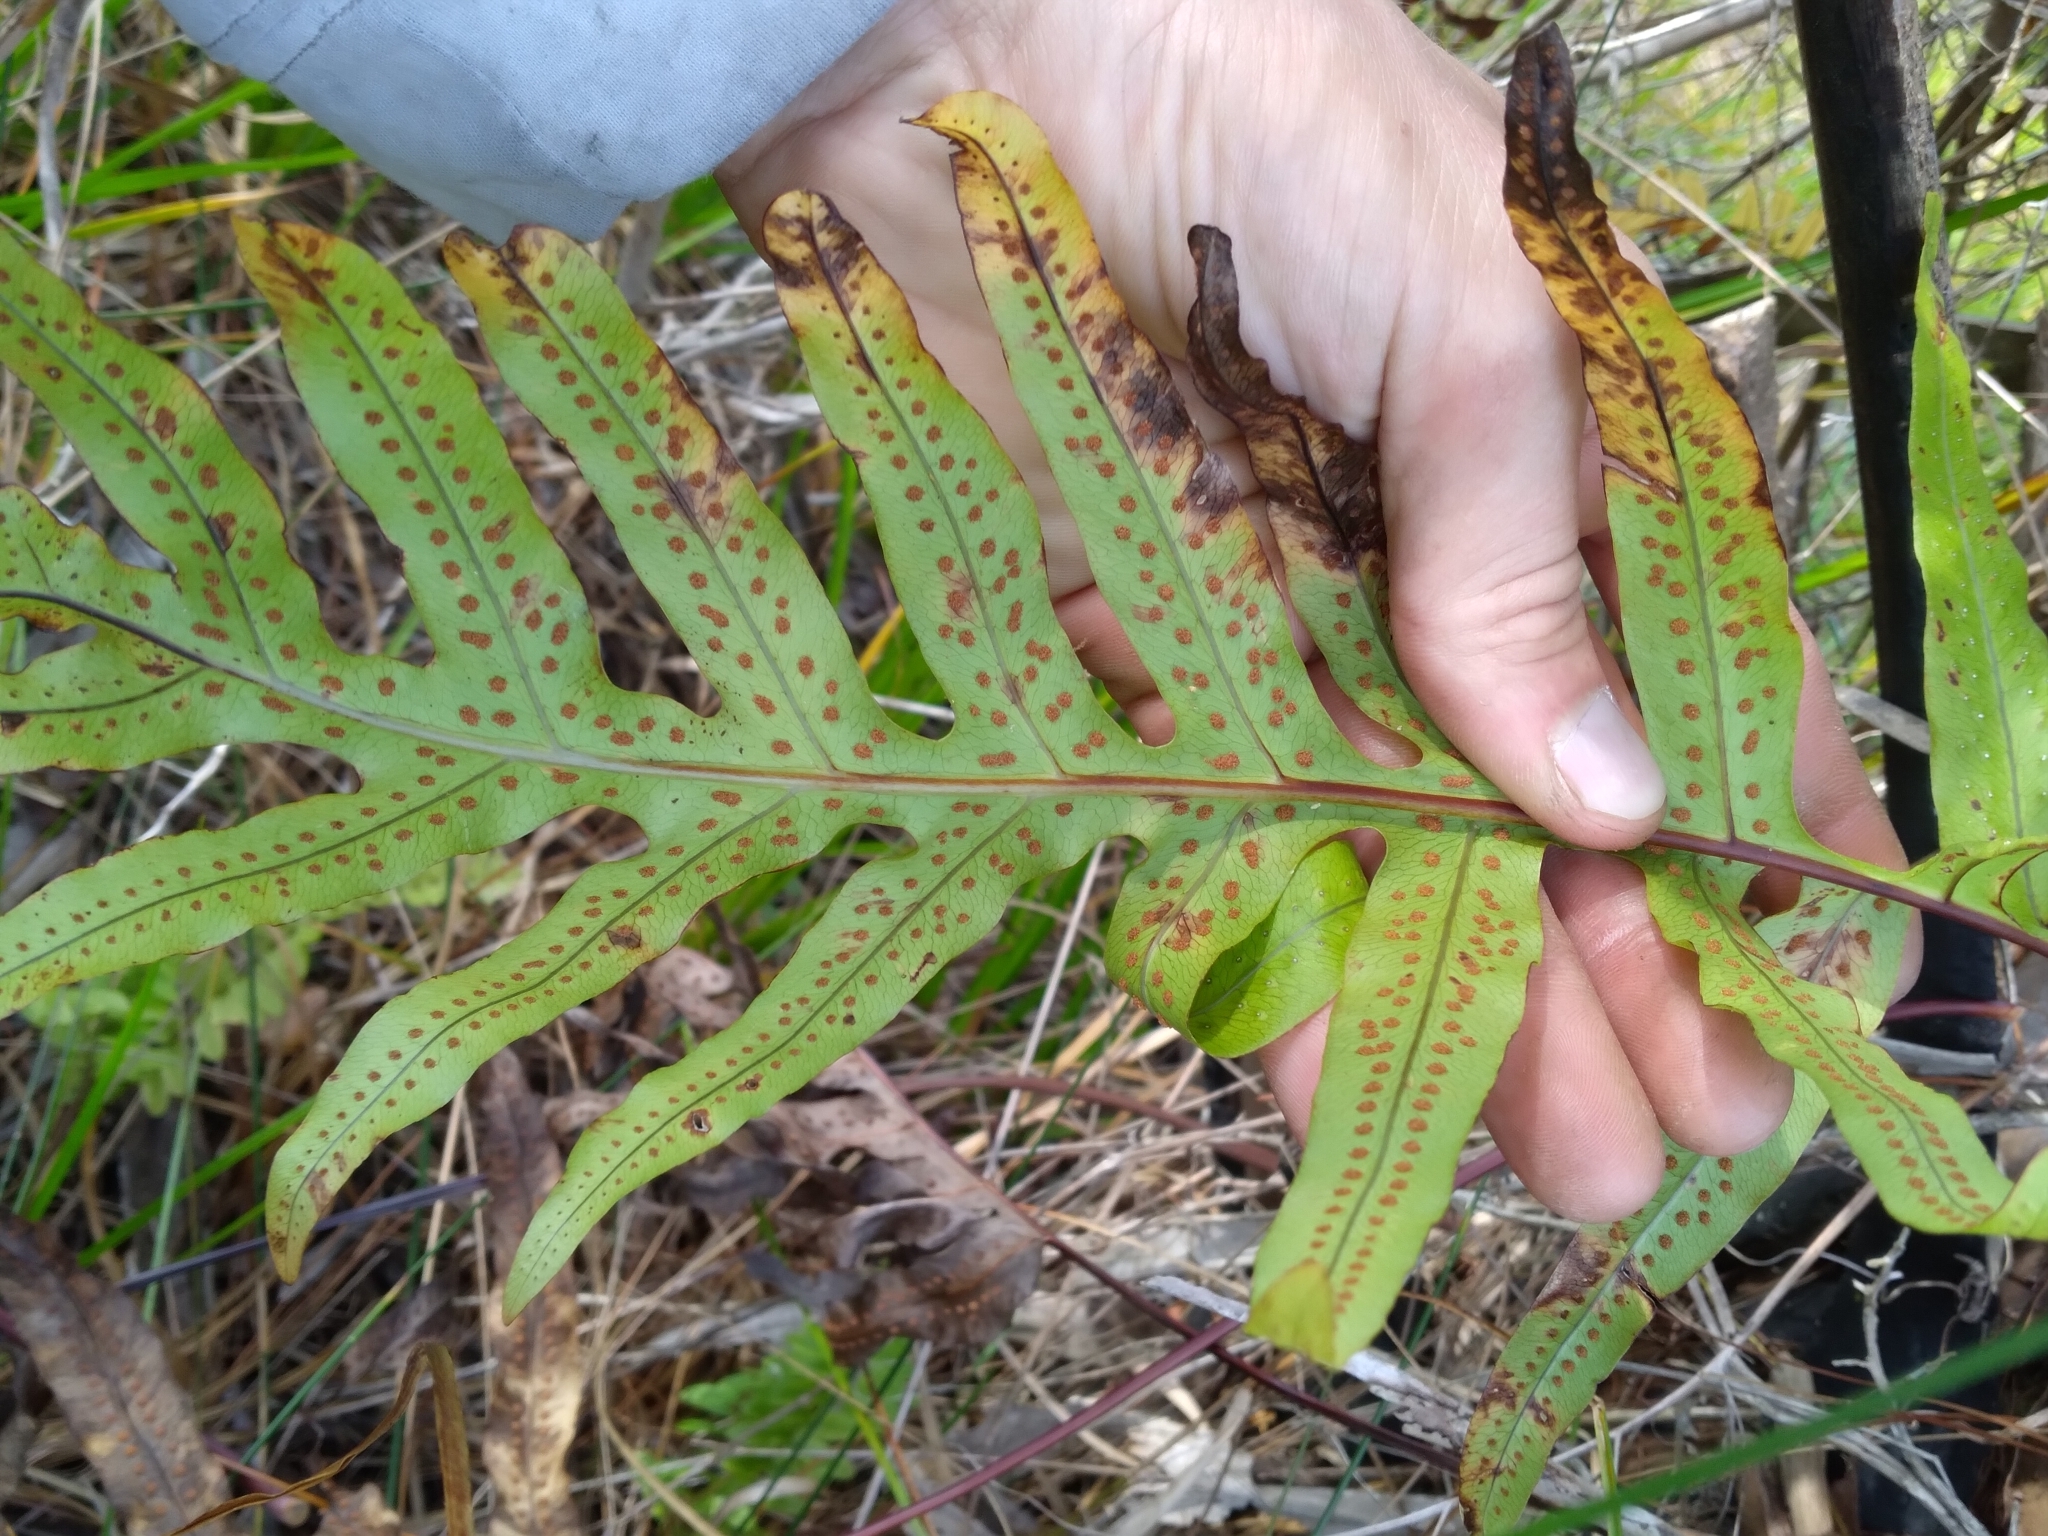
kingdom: Plantae
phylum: Tracheophyta
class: Polypodiopsida
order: Polypodiales
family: Polypodiaceae
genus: Phlebodium
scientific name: Phlebodium aureum
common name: Gold-foot fern
